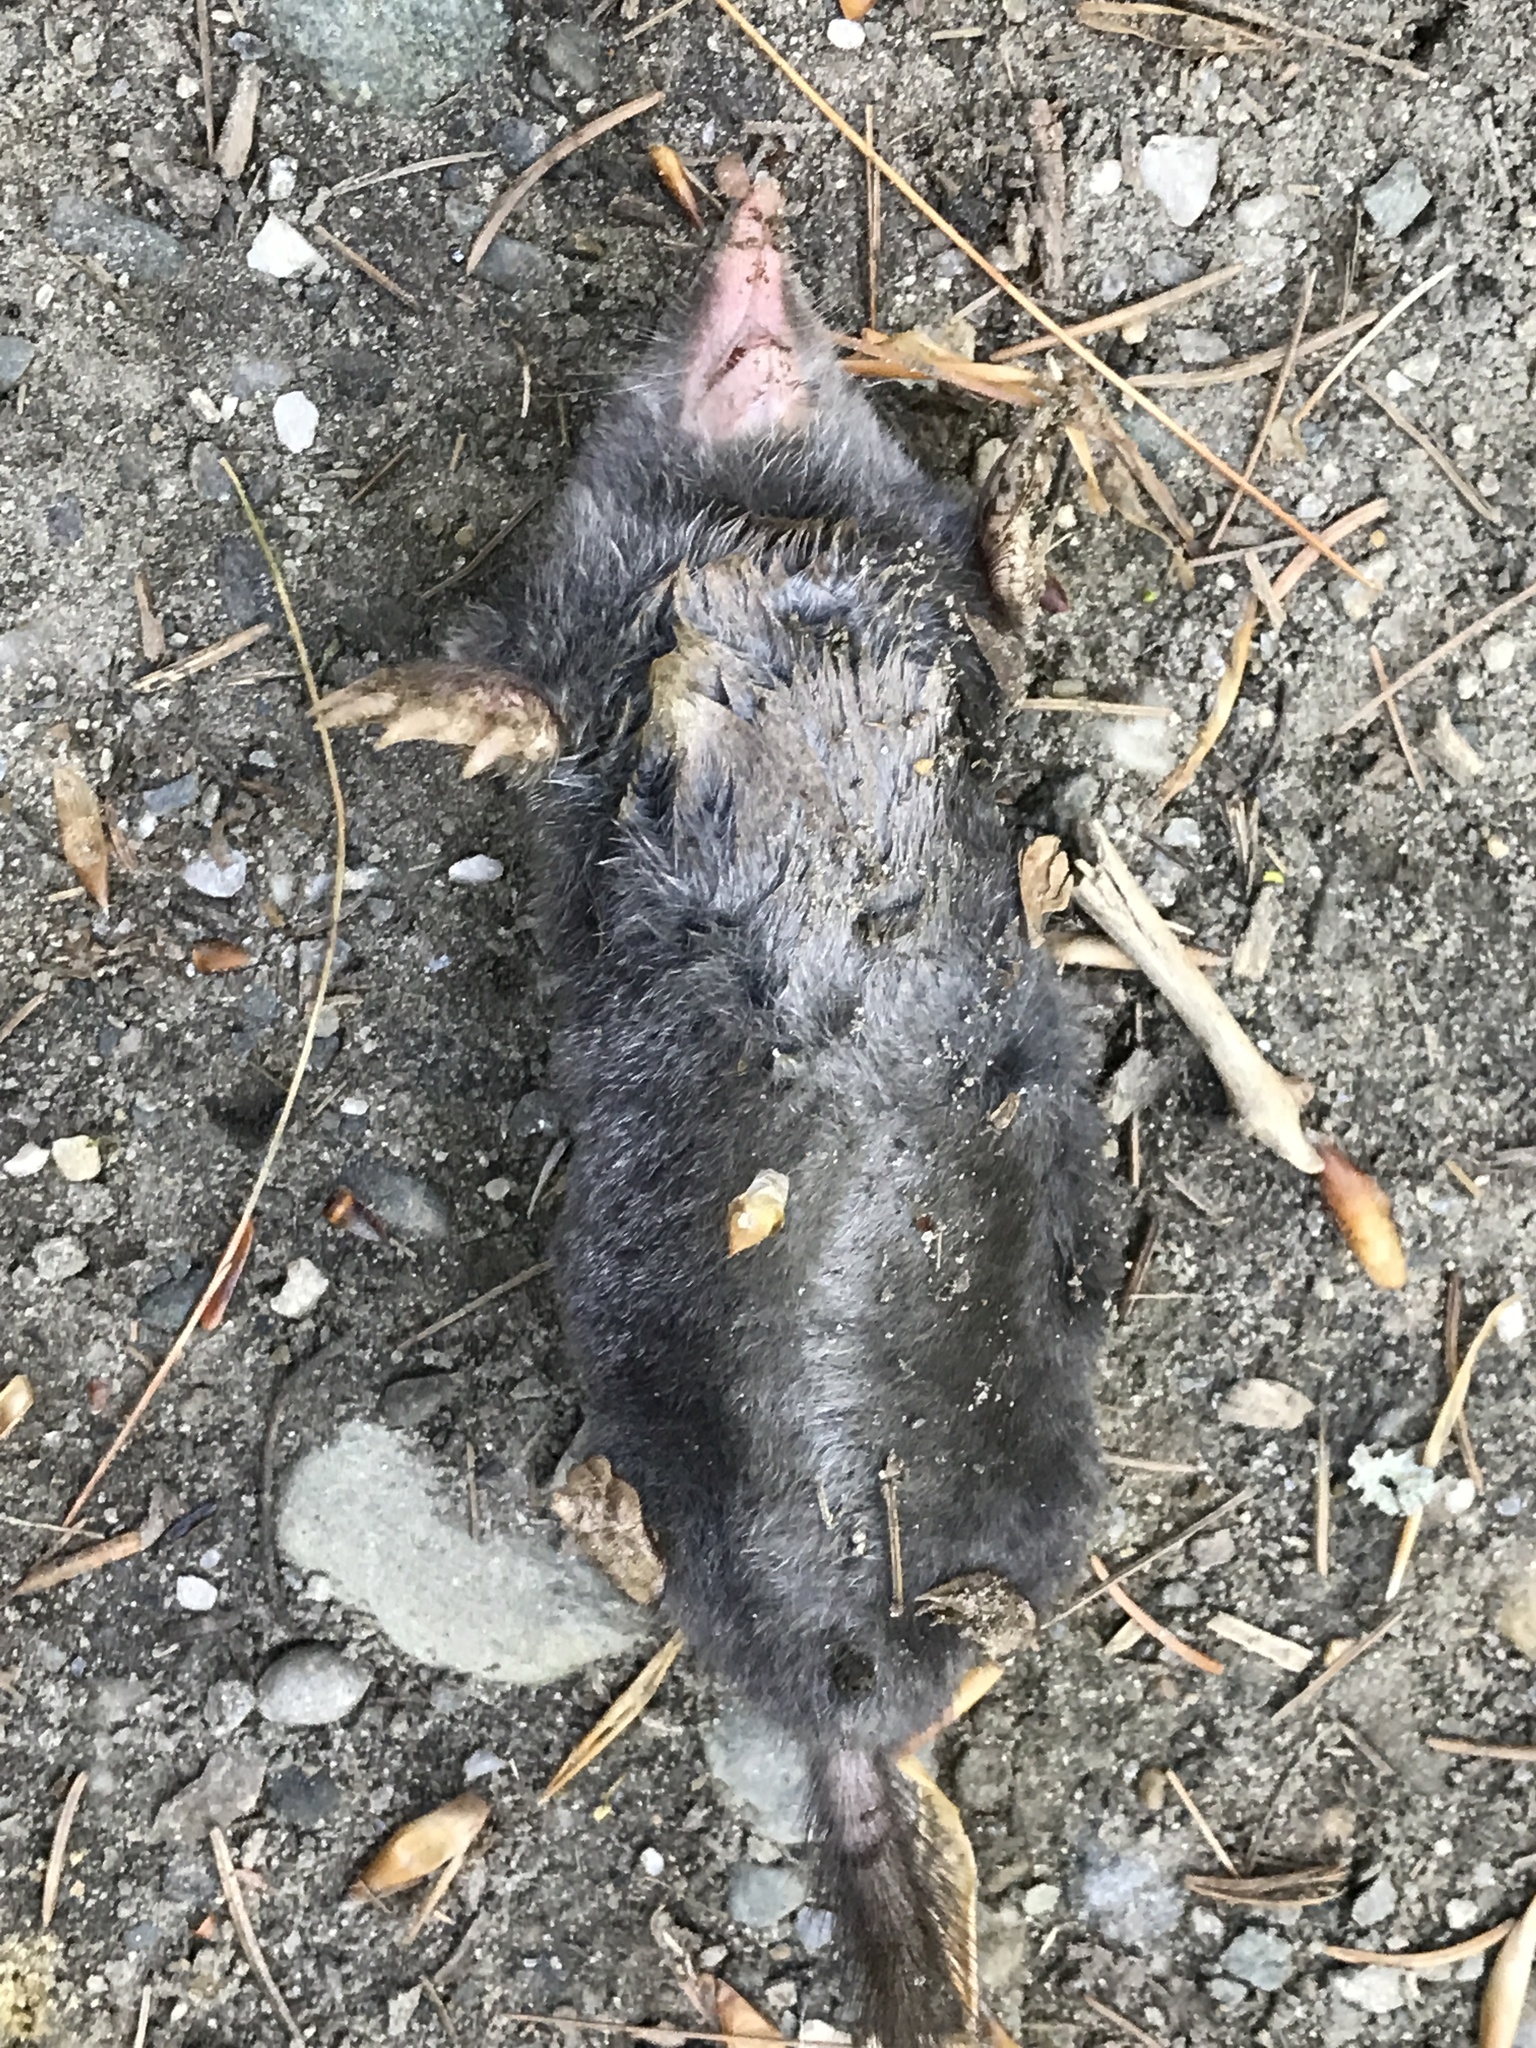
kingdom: Animalia
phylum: Chordata
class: Mammalia
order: Soricomorpha
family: Talpidae
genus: Parascalops
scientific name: Parascalops breweri
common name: Hairy-tailed mole
